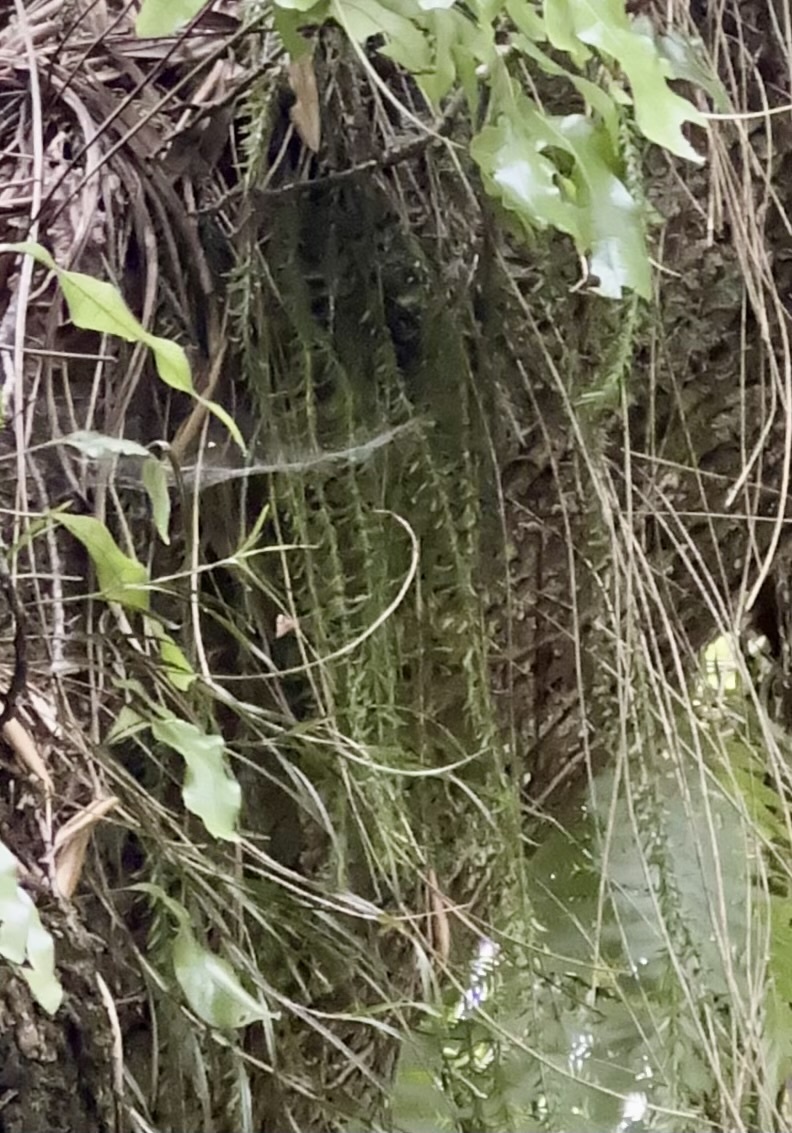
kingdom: Plantae
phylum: Tracheophyta
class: Lycopodiopsida
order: Lycopodiales
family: Lycopodiaceae
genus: Phlegmariurus
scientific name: Phlegmariurus varius
